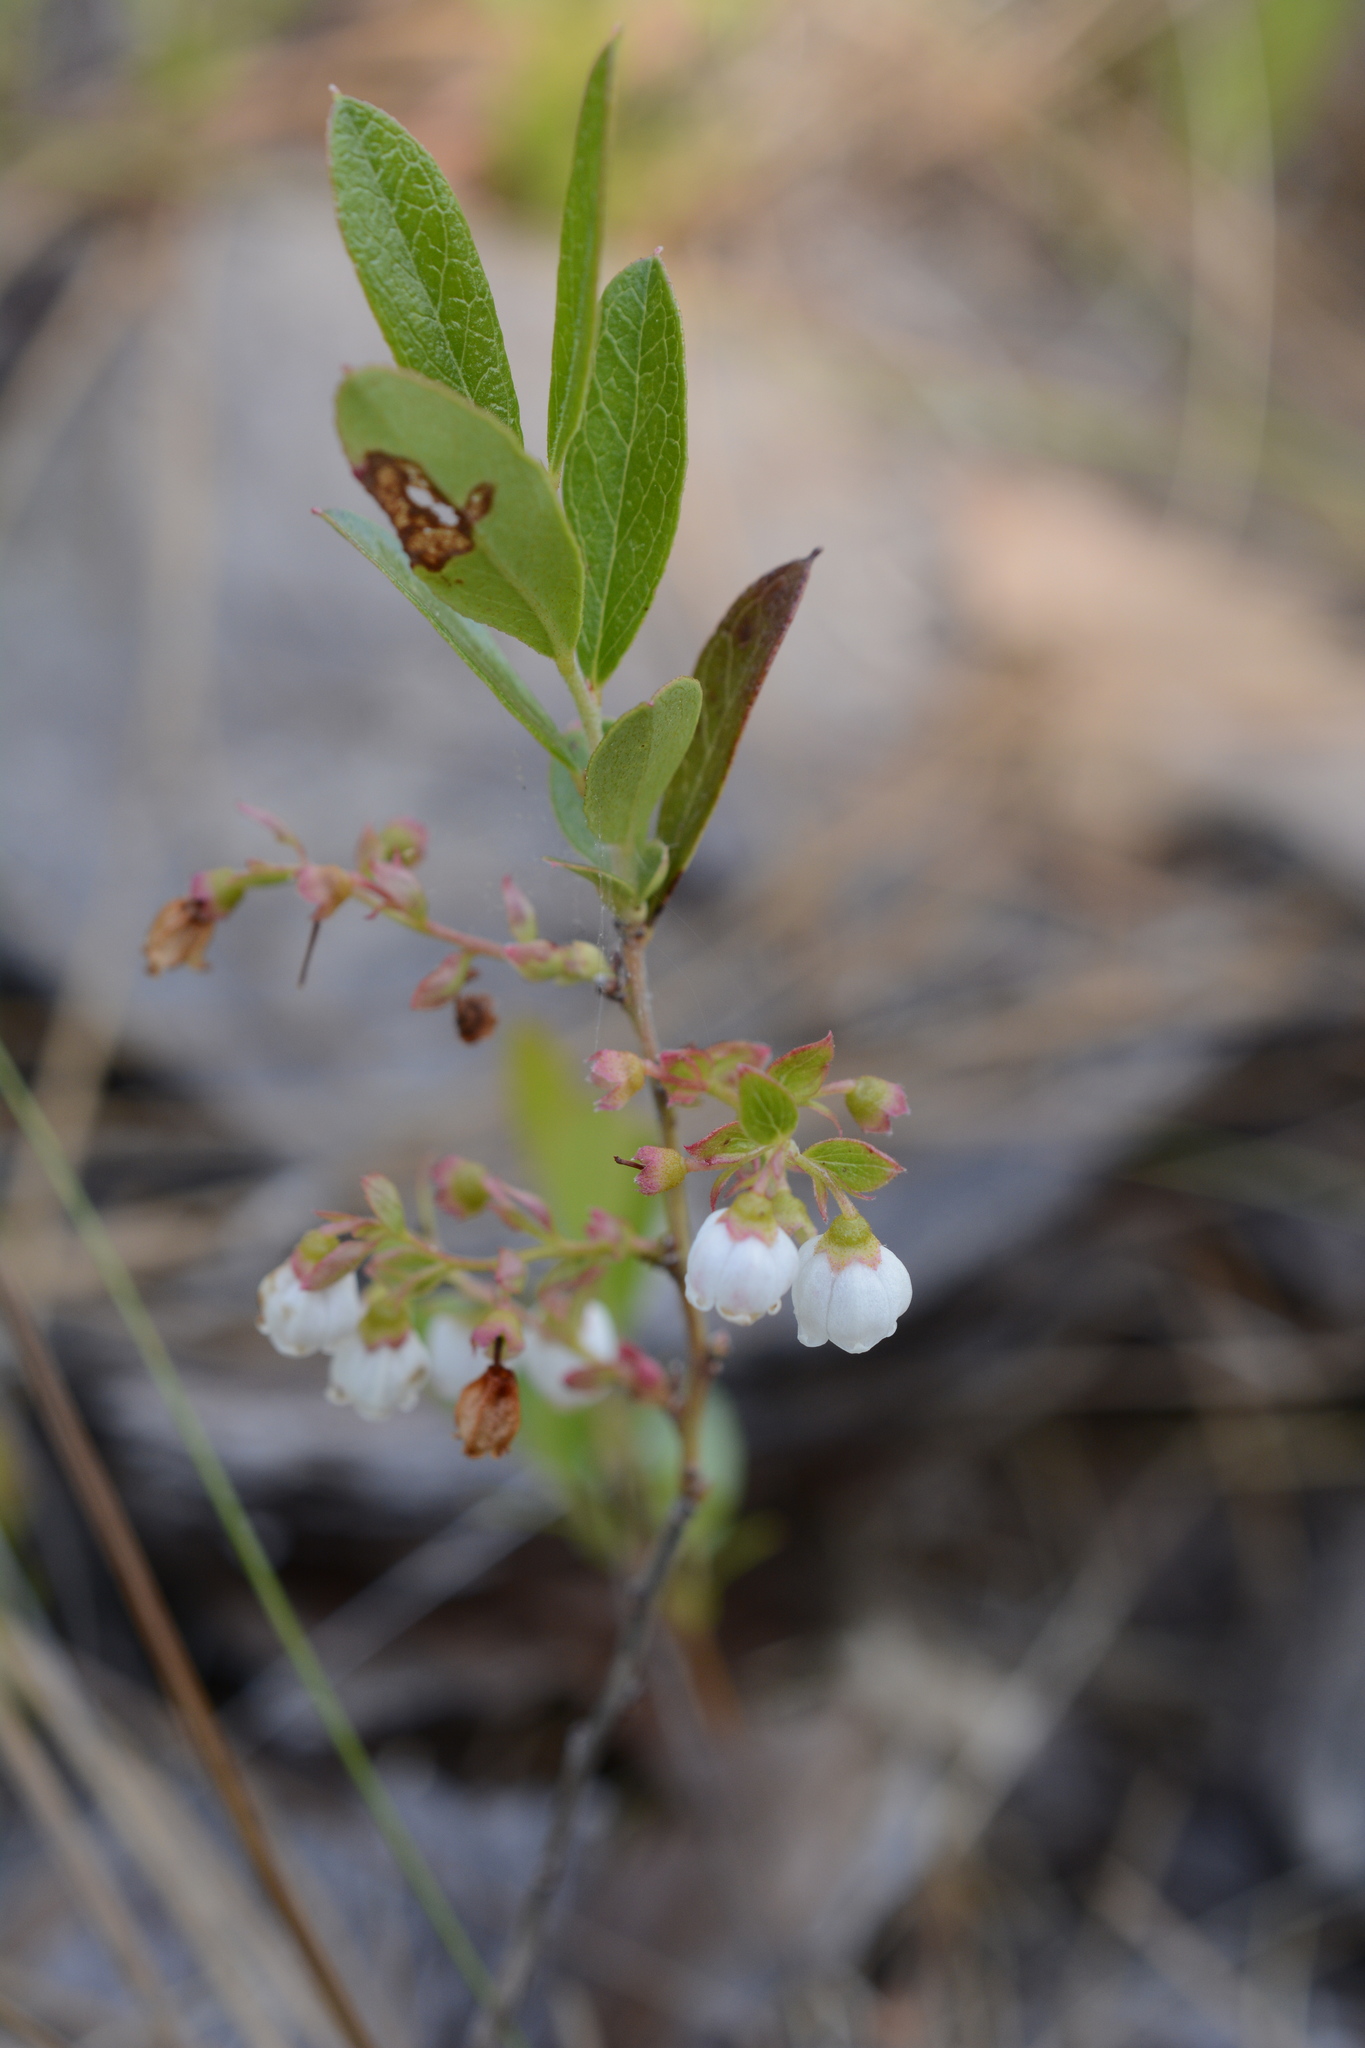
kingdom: Plantae
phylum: Tracheophyta
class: Magnoliopsida
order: Ericales
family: Ericaceae
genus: Gaylussacia
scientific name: Gaylussacia dumosa
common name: Dwarf huckleberry
